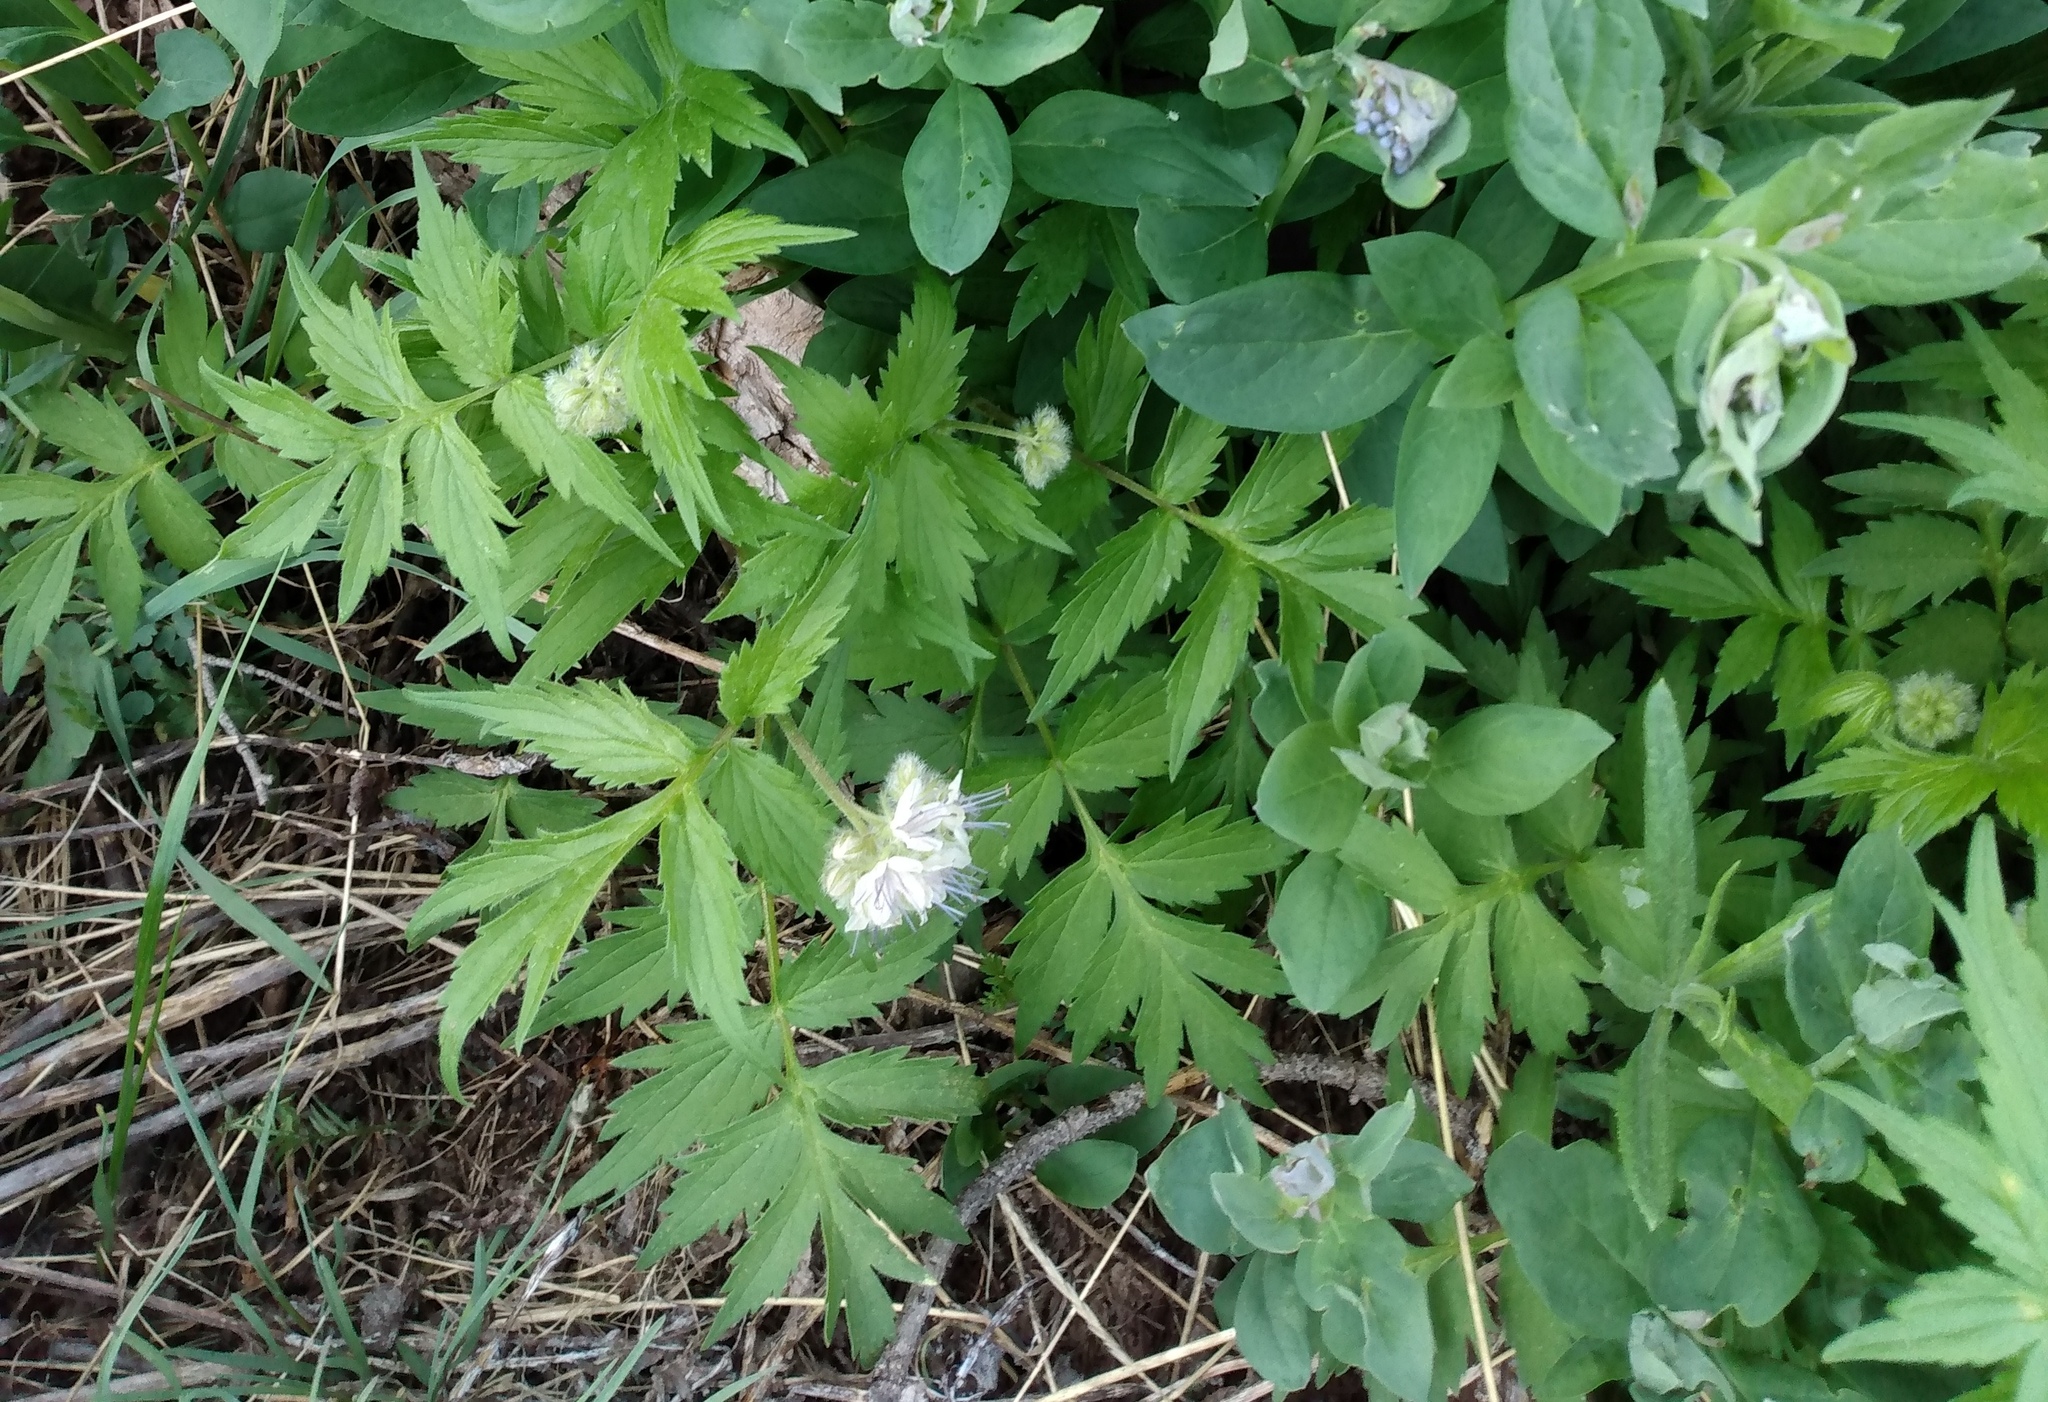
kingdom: Plantae
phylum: Tracheophyta
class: Magnoliopsida
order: Boraginales
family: Hydrophyllaceae
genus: Hydrophyllum
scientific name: Hydrophyllum fendleri
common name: Fendler's waterleaf
